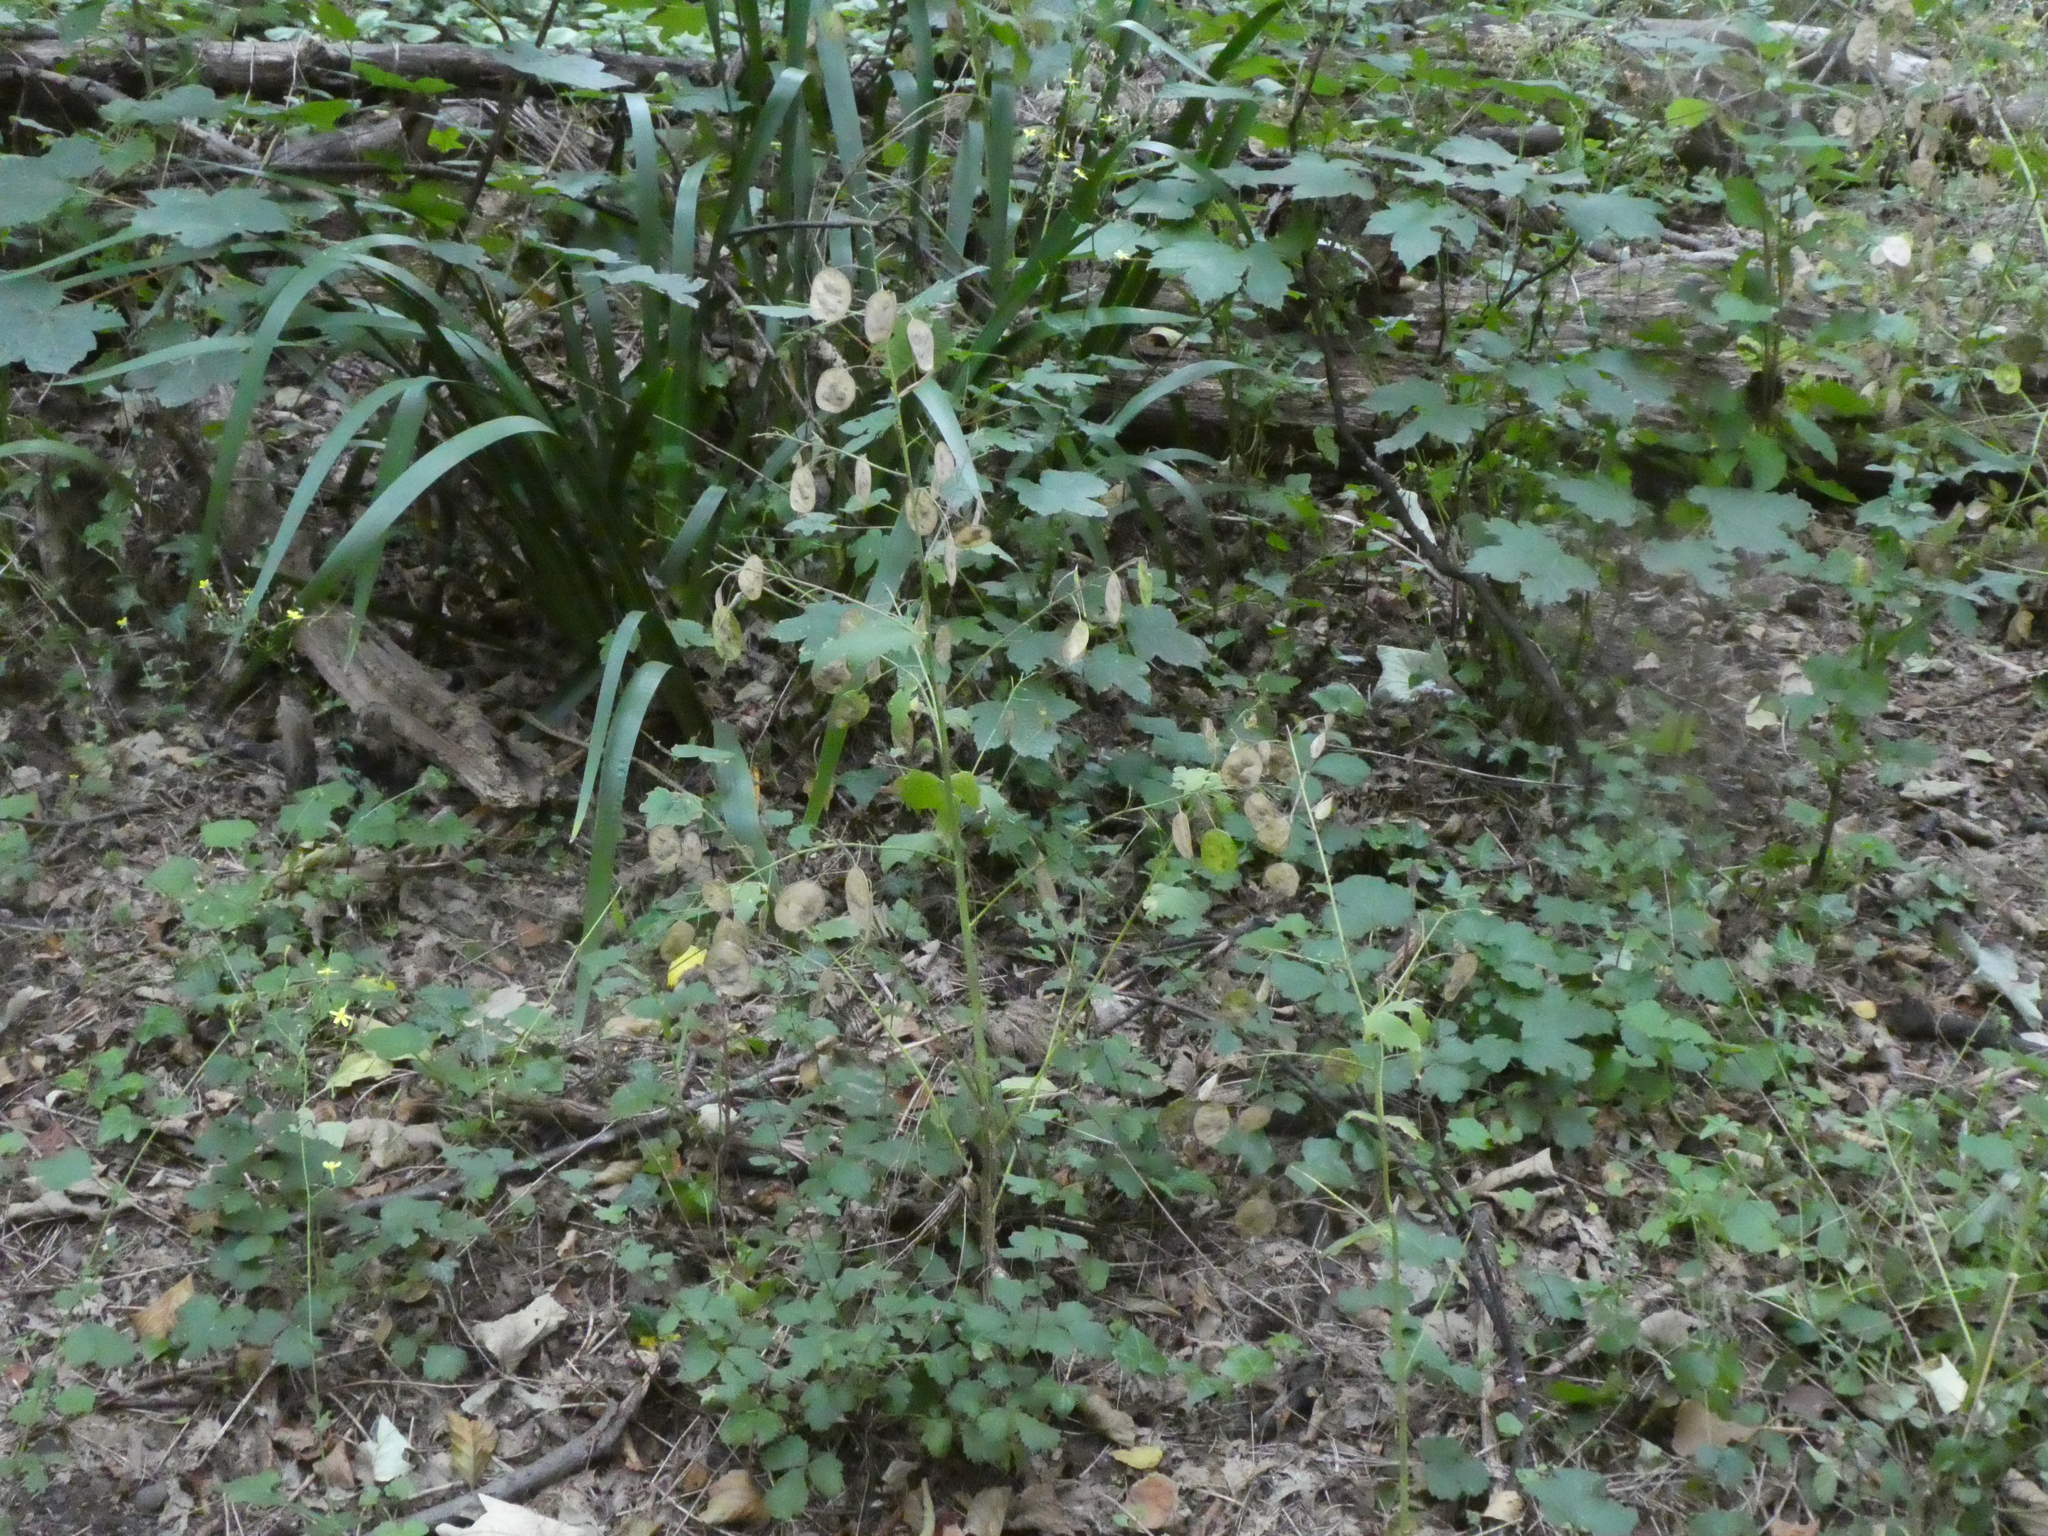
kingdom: Plantae
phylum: Tracheophyta
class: Magnoliopsida
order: Brassicales
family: Brassicaceae
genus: Lunaria
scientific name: Lunaria annua
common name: Honesty
